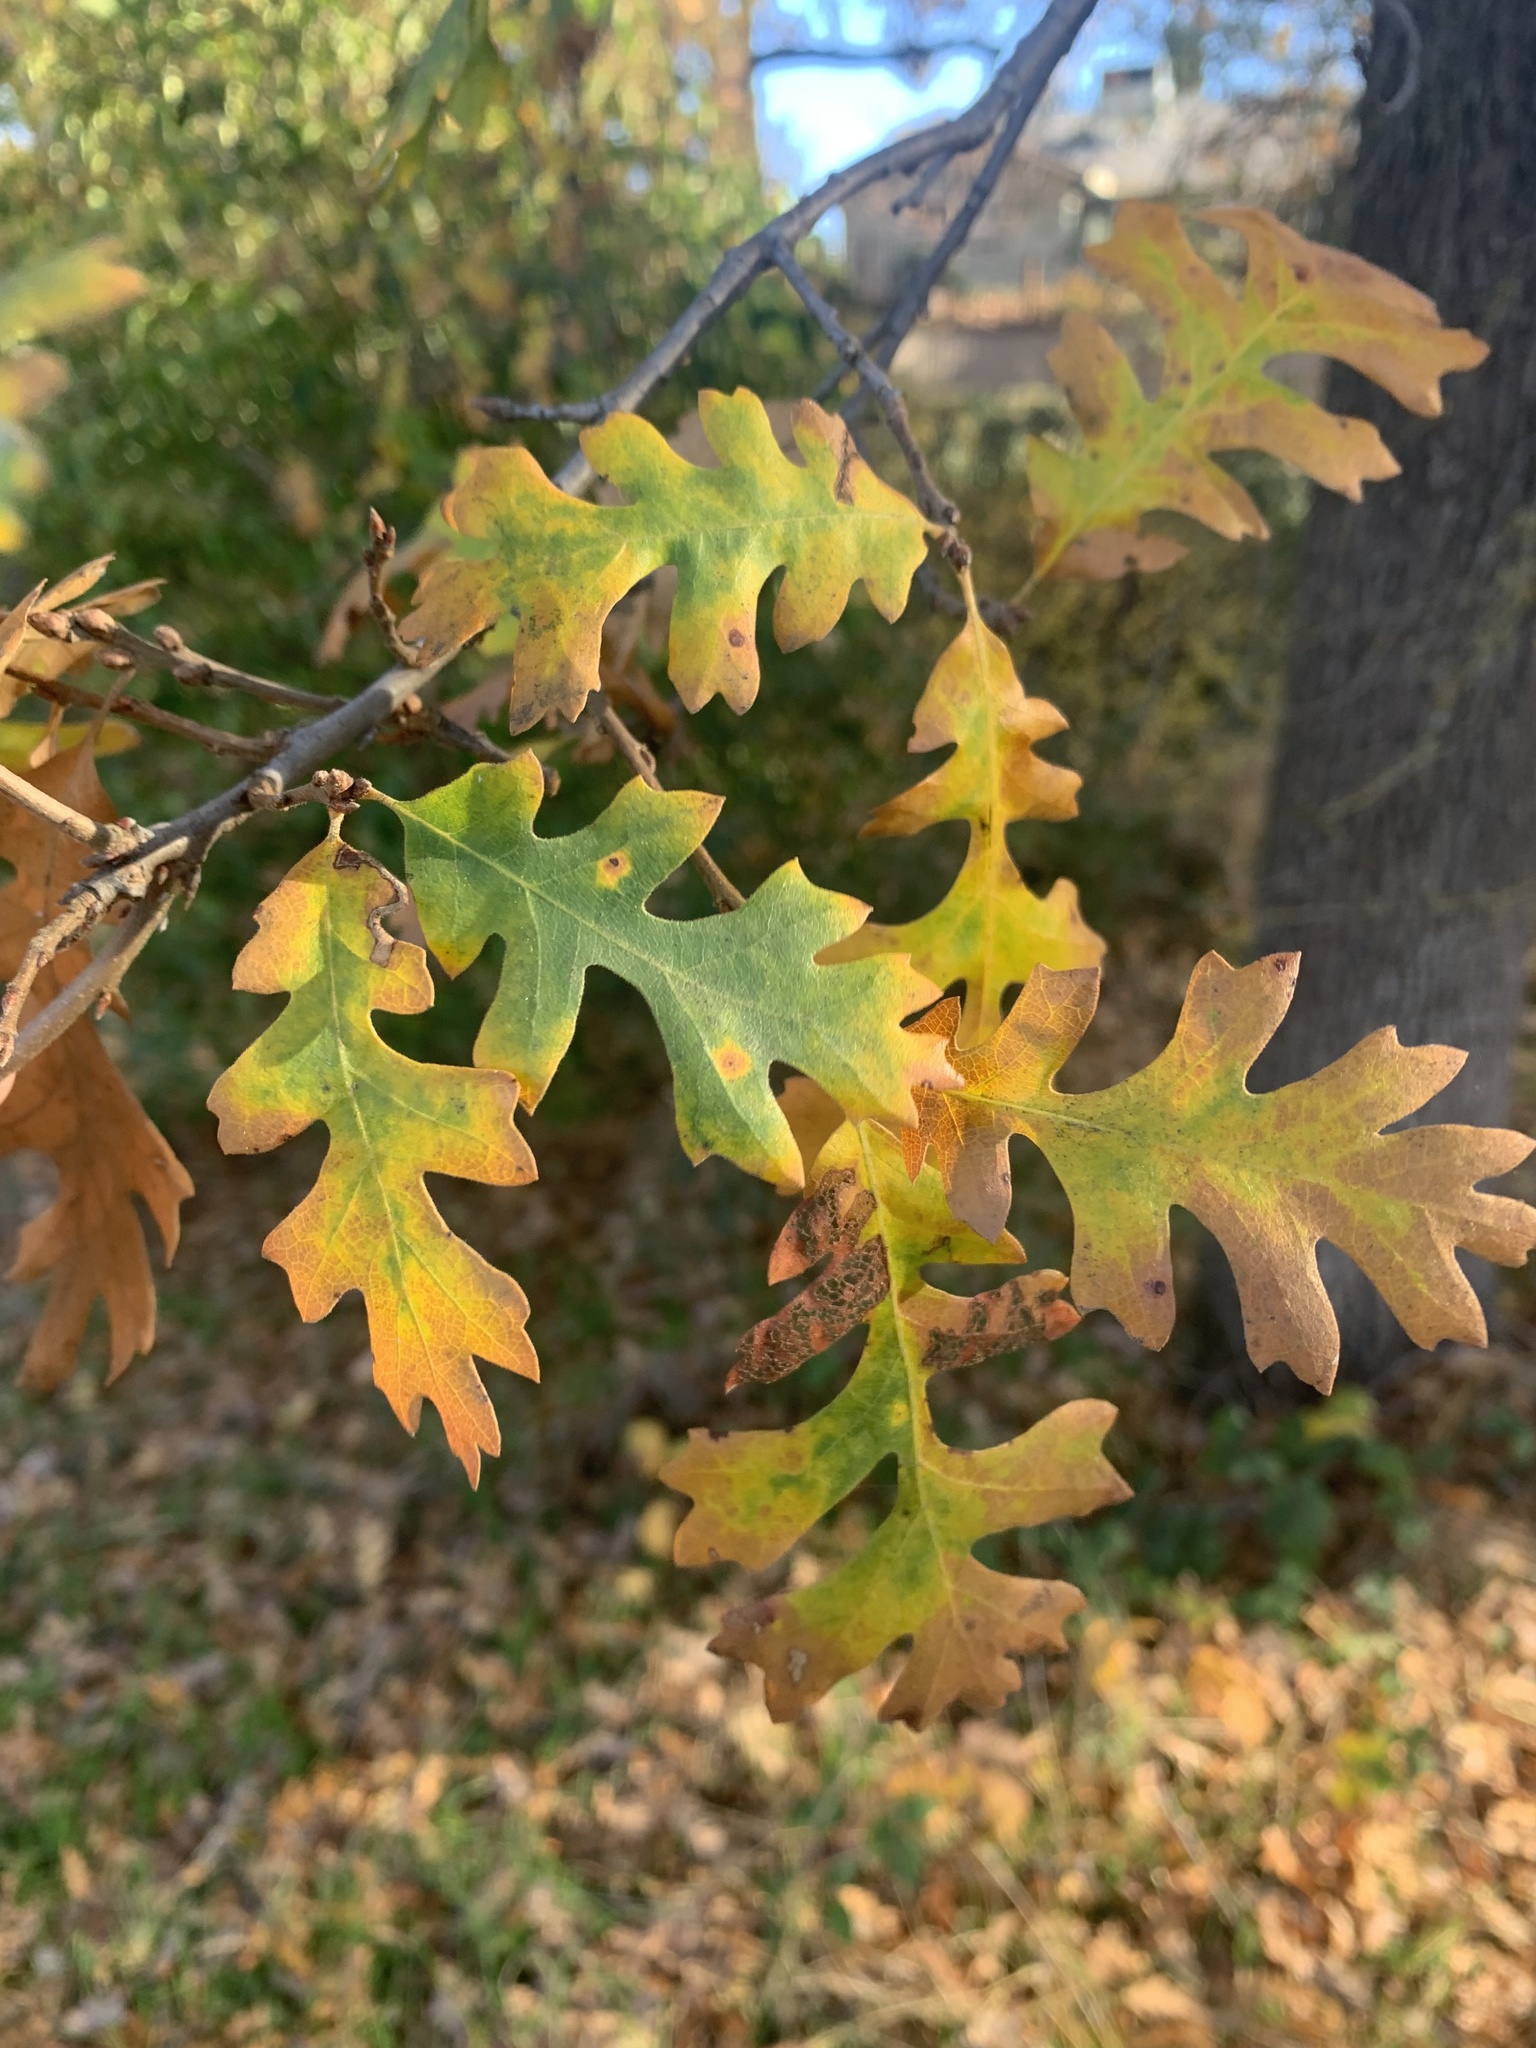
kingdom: Plantae
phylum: Tracheophyta
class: Magnoliopsida
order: Fagales
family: Fagaceae
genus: Quercus
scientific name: Quercus lobata
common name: Valley oak
